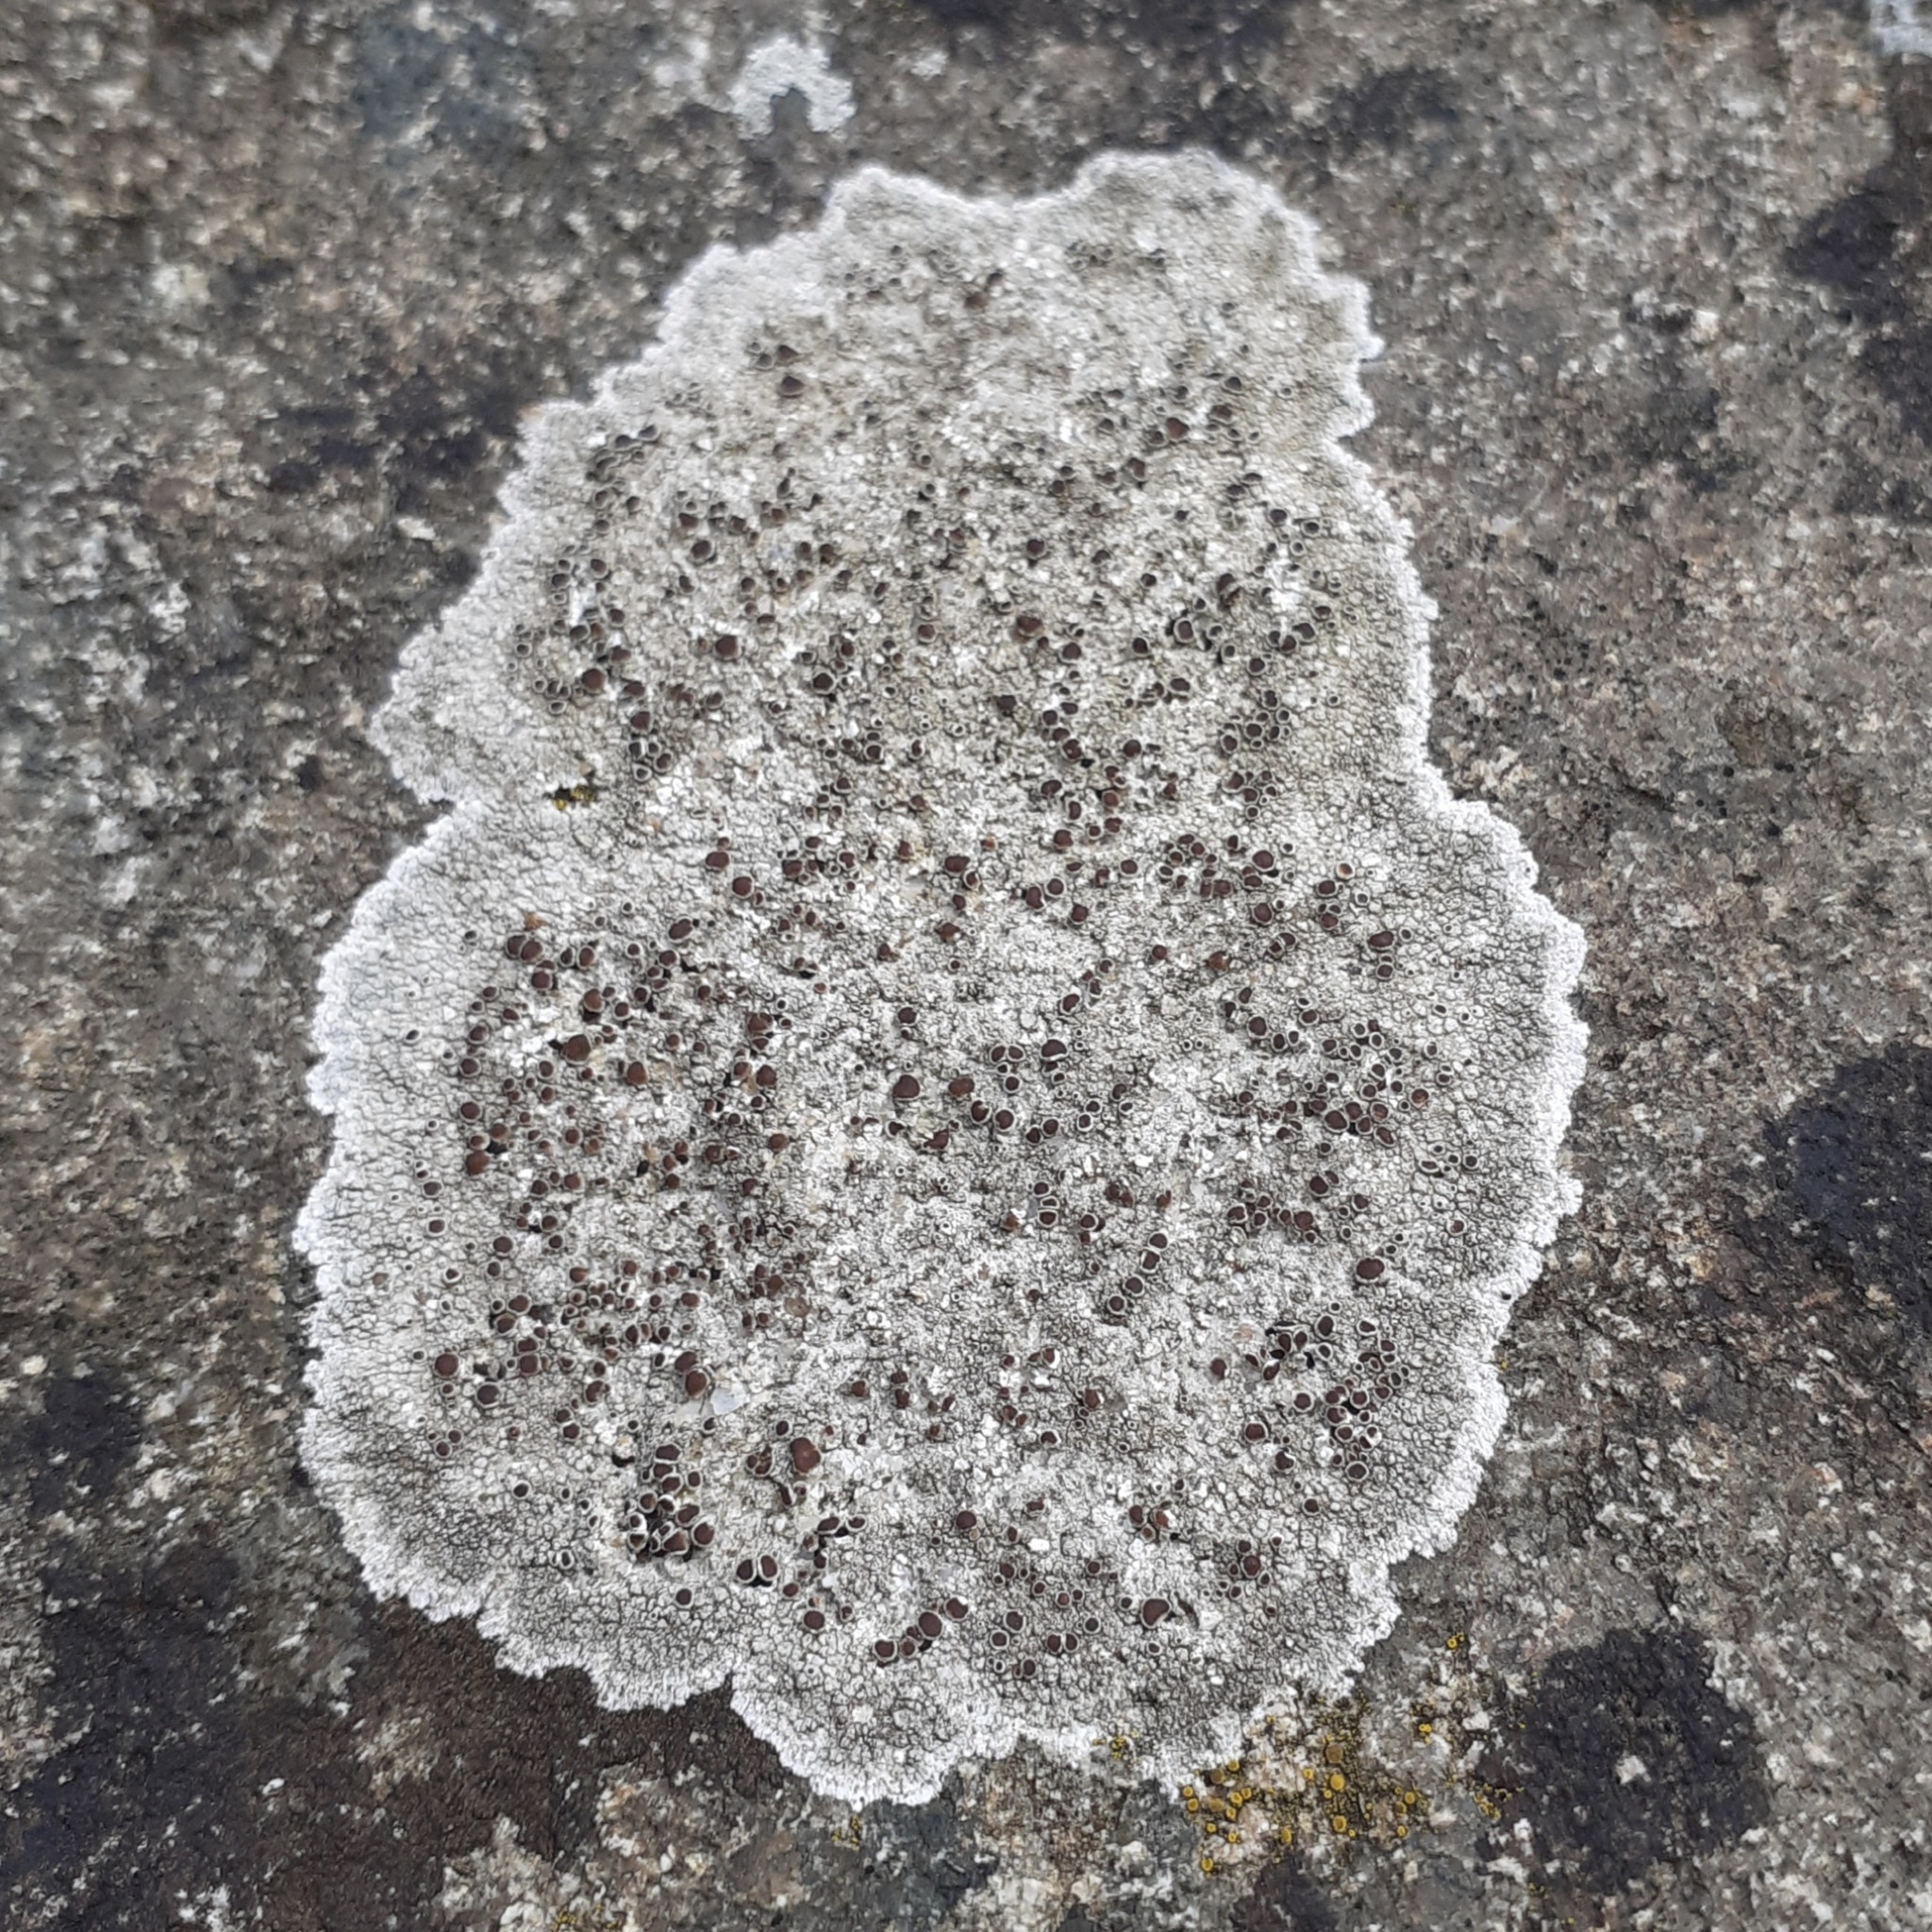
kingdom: Fungi
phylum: Ascomycota
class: Lecanoromycetes
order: Lecanorales
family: Lecanoraceae
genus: Lecanora
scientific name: Lecanora campestris
